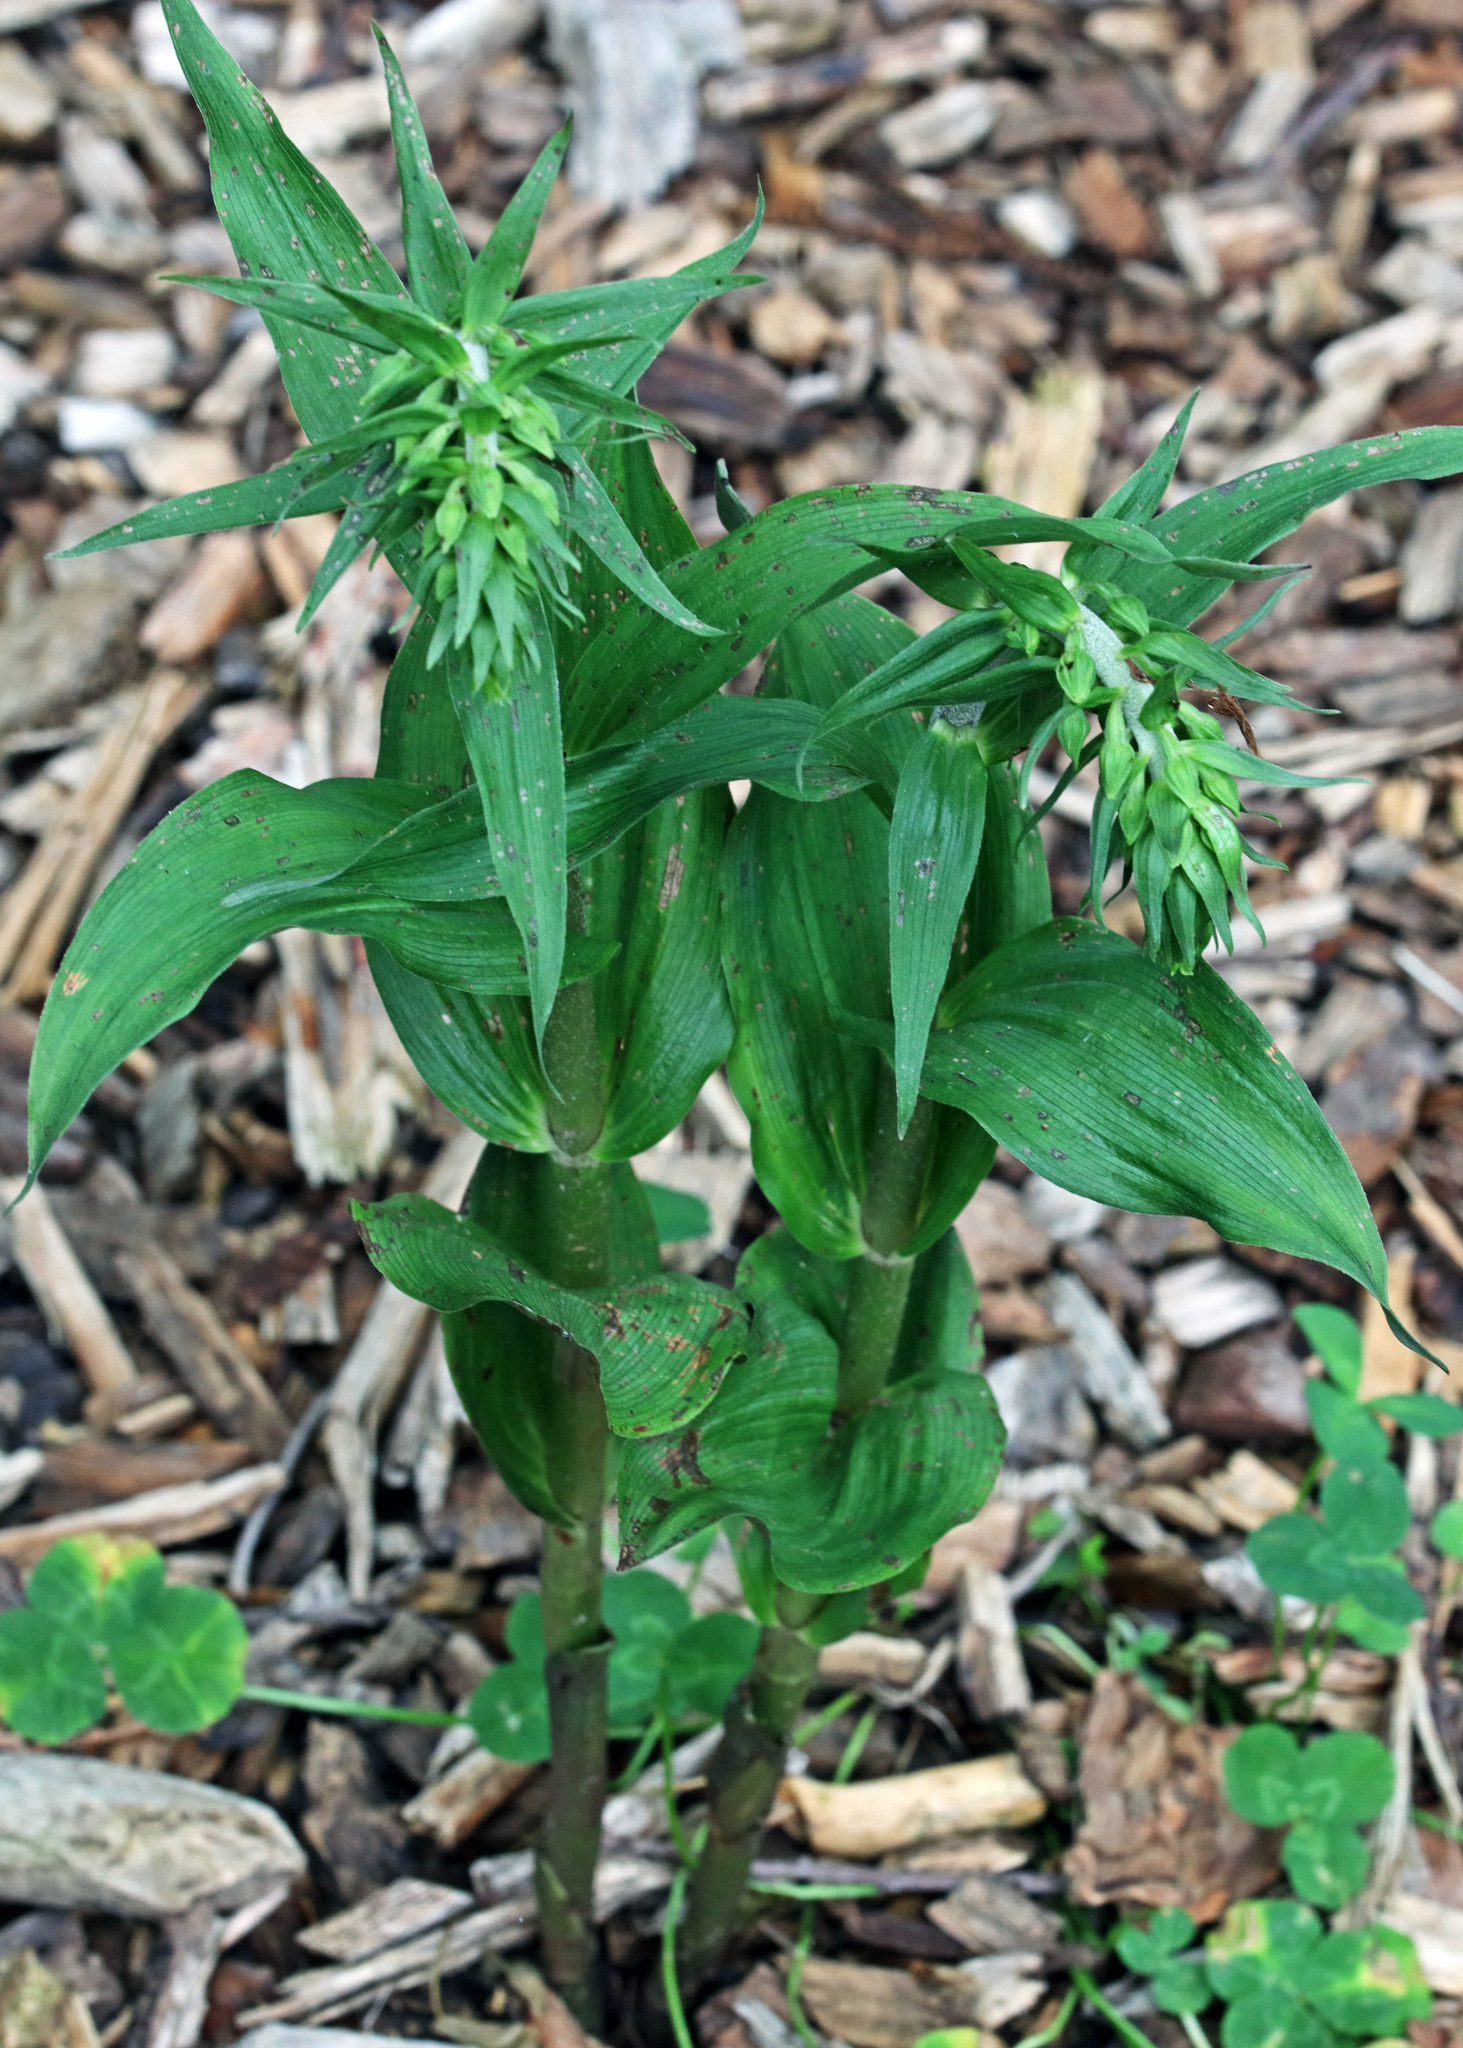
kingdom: Plantae
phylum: Tracheophyta
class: Liliopsida
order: Asparagales
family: Orchidaceae
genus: Epipactis
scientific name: Epipactis helleborine
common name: Broad-leaved helleborine
